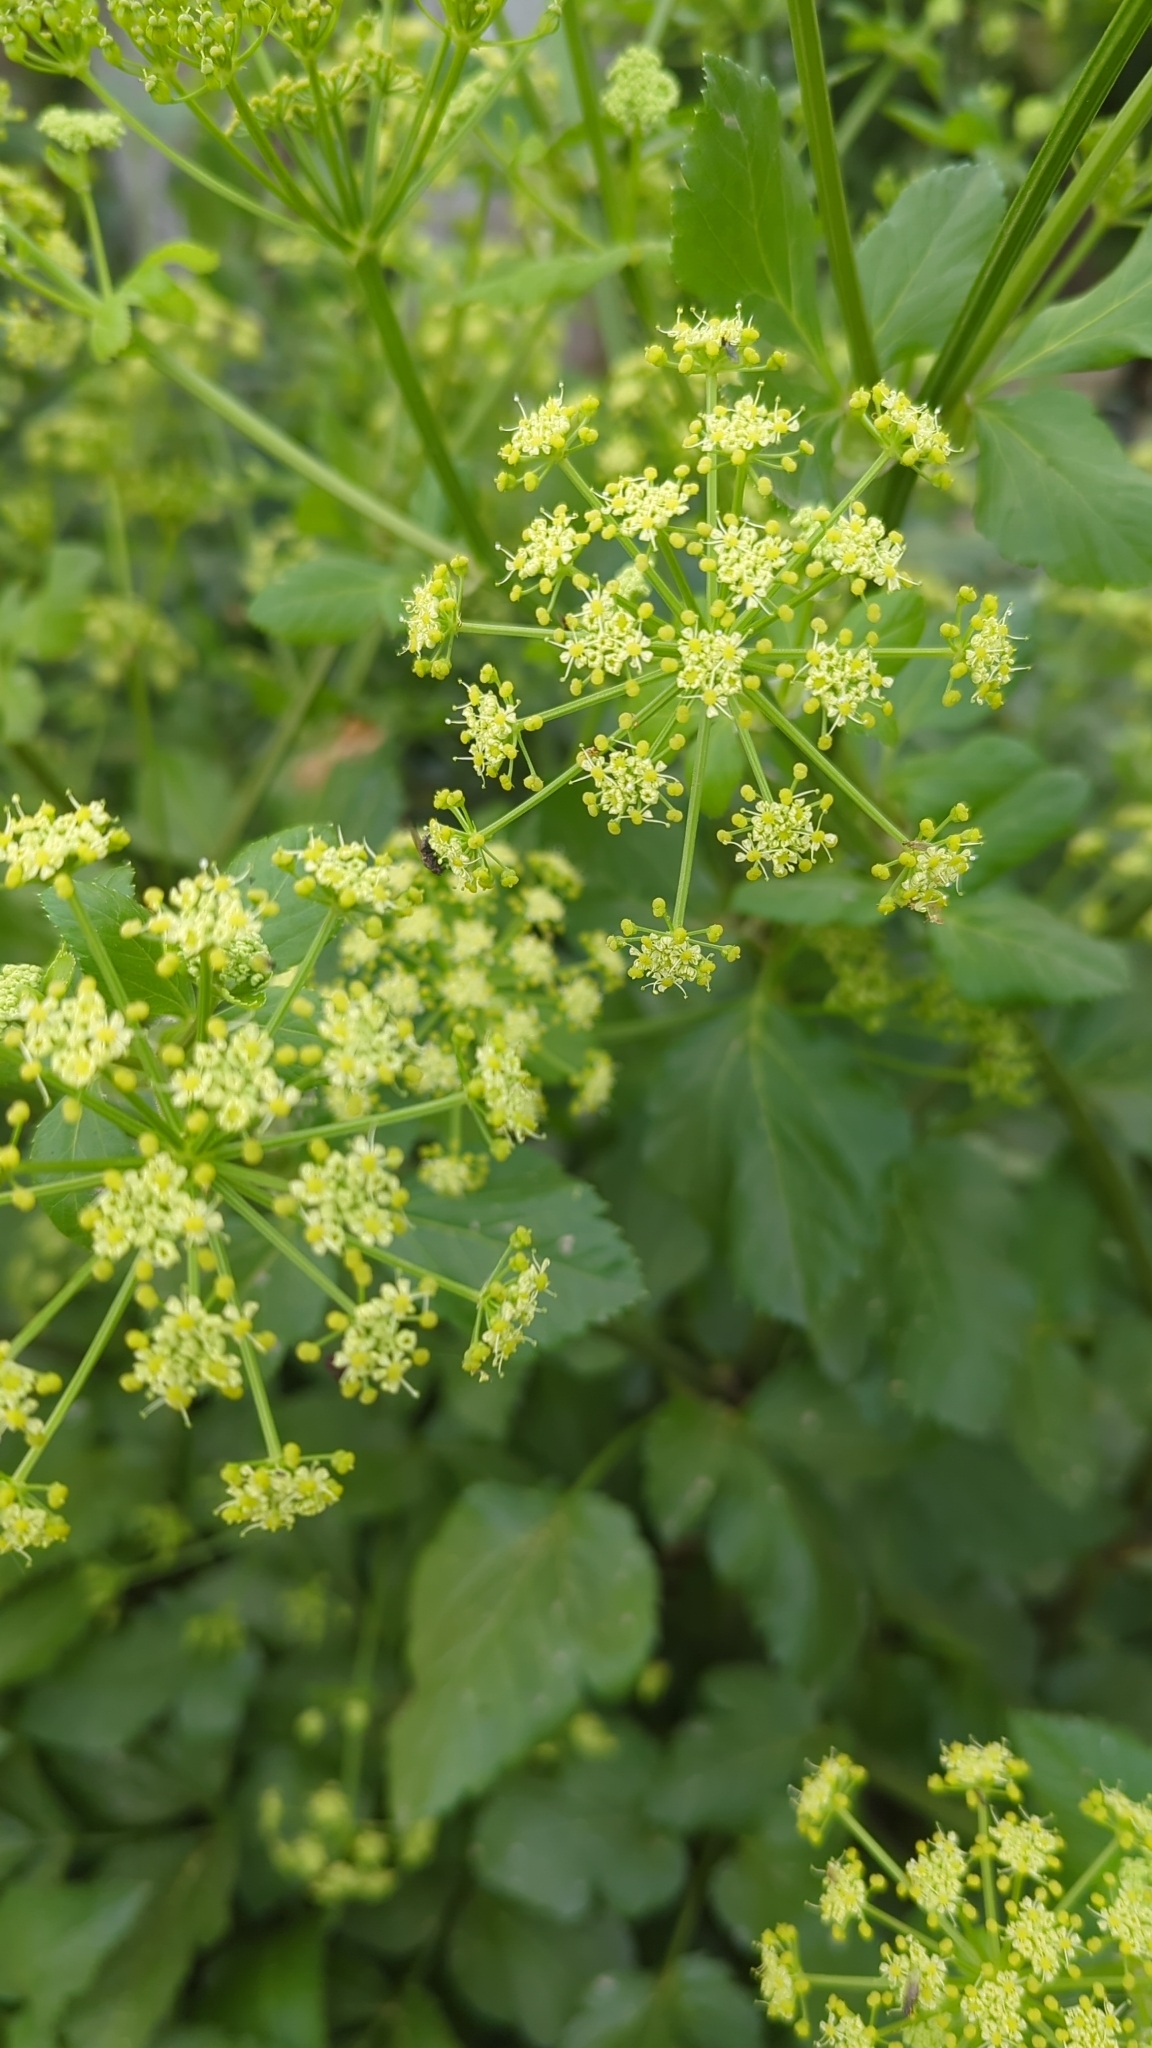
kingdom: Plantae
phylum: Tracheophyta
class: Magnoliopsida
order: Apiales
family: Apiaceae
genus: Smyrnium
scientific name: Smyrnium olusatrum
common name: Alexanders
